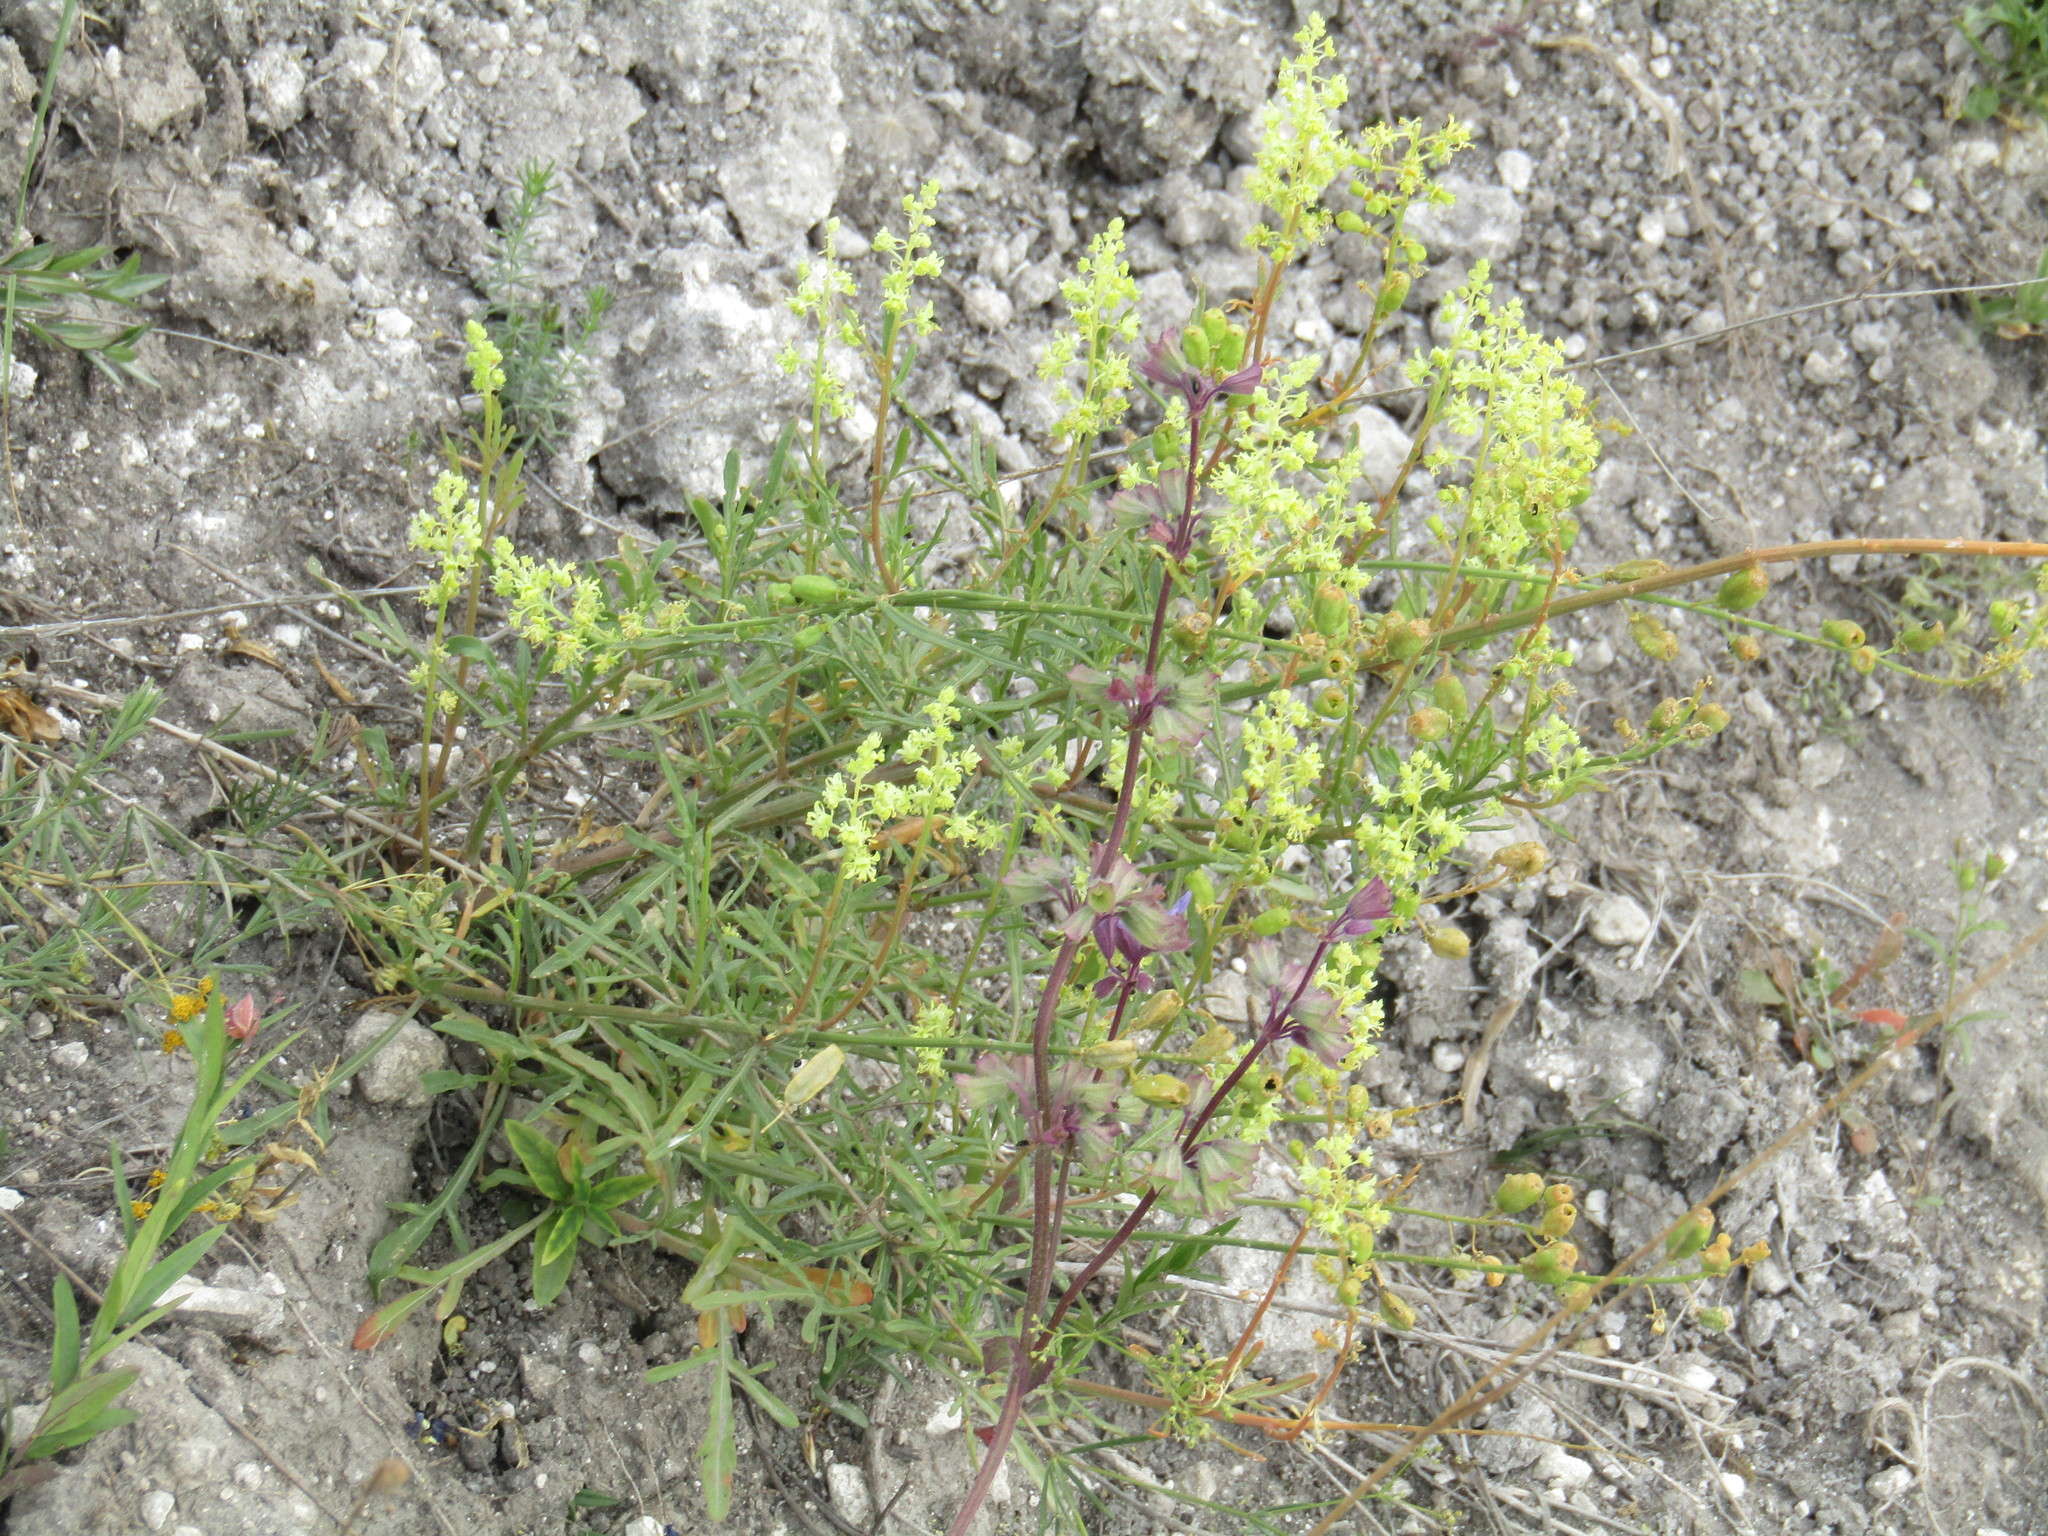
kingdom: Plantae
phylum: Tracheophyta
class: Magnoliopsida
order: Brassicales
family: Resedaceae
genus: Reseda
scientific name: Reseda lutea
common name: Wild mignonette
